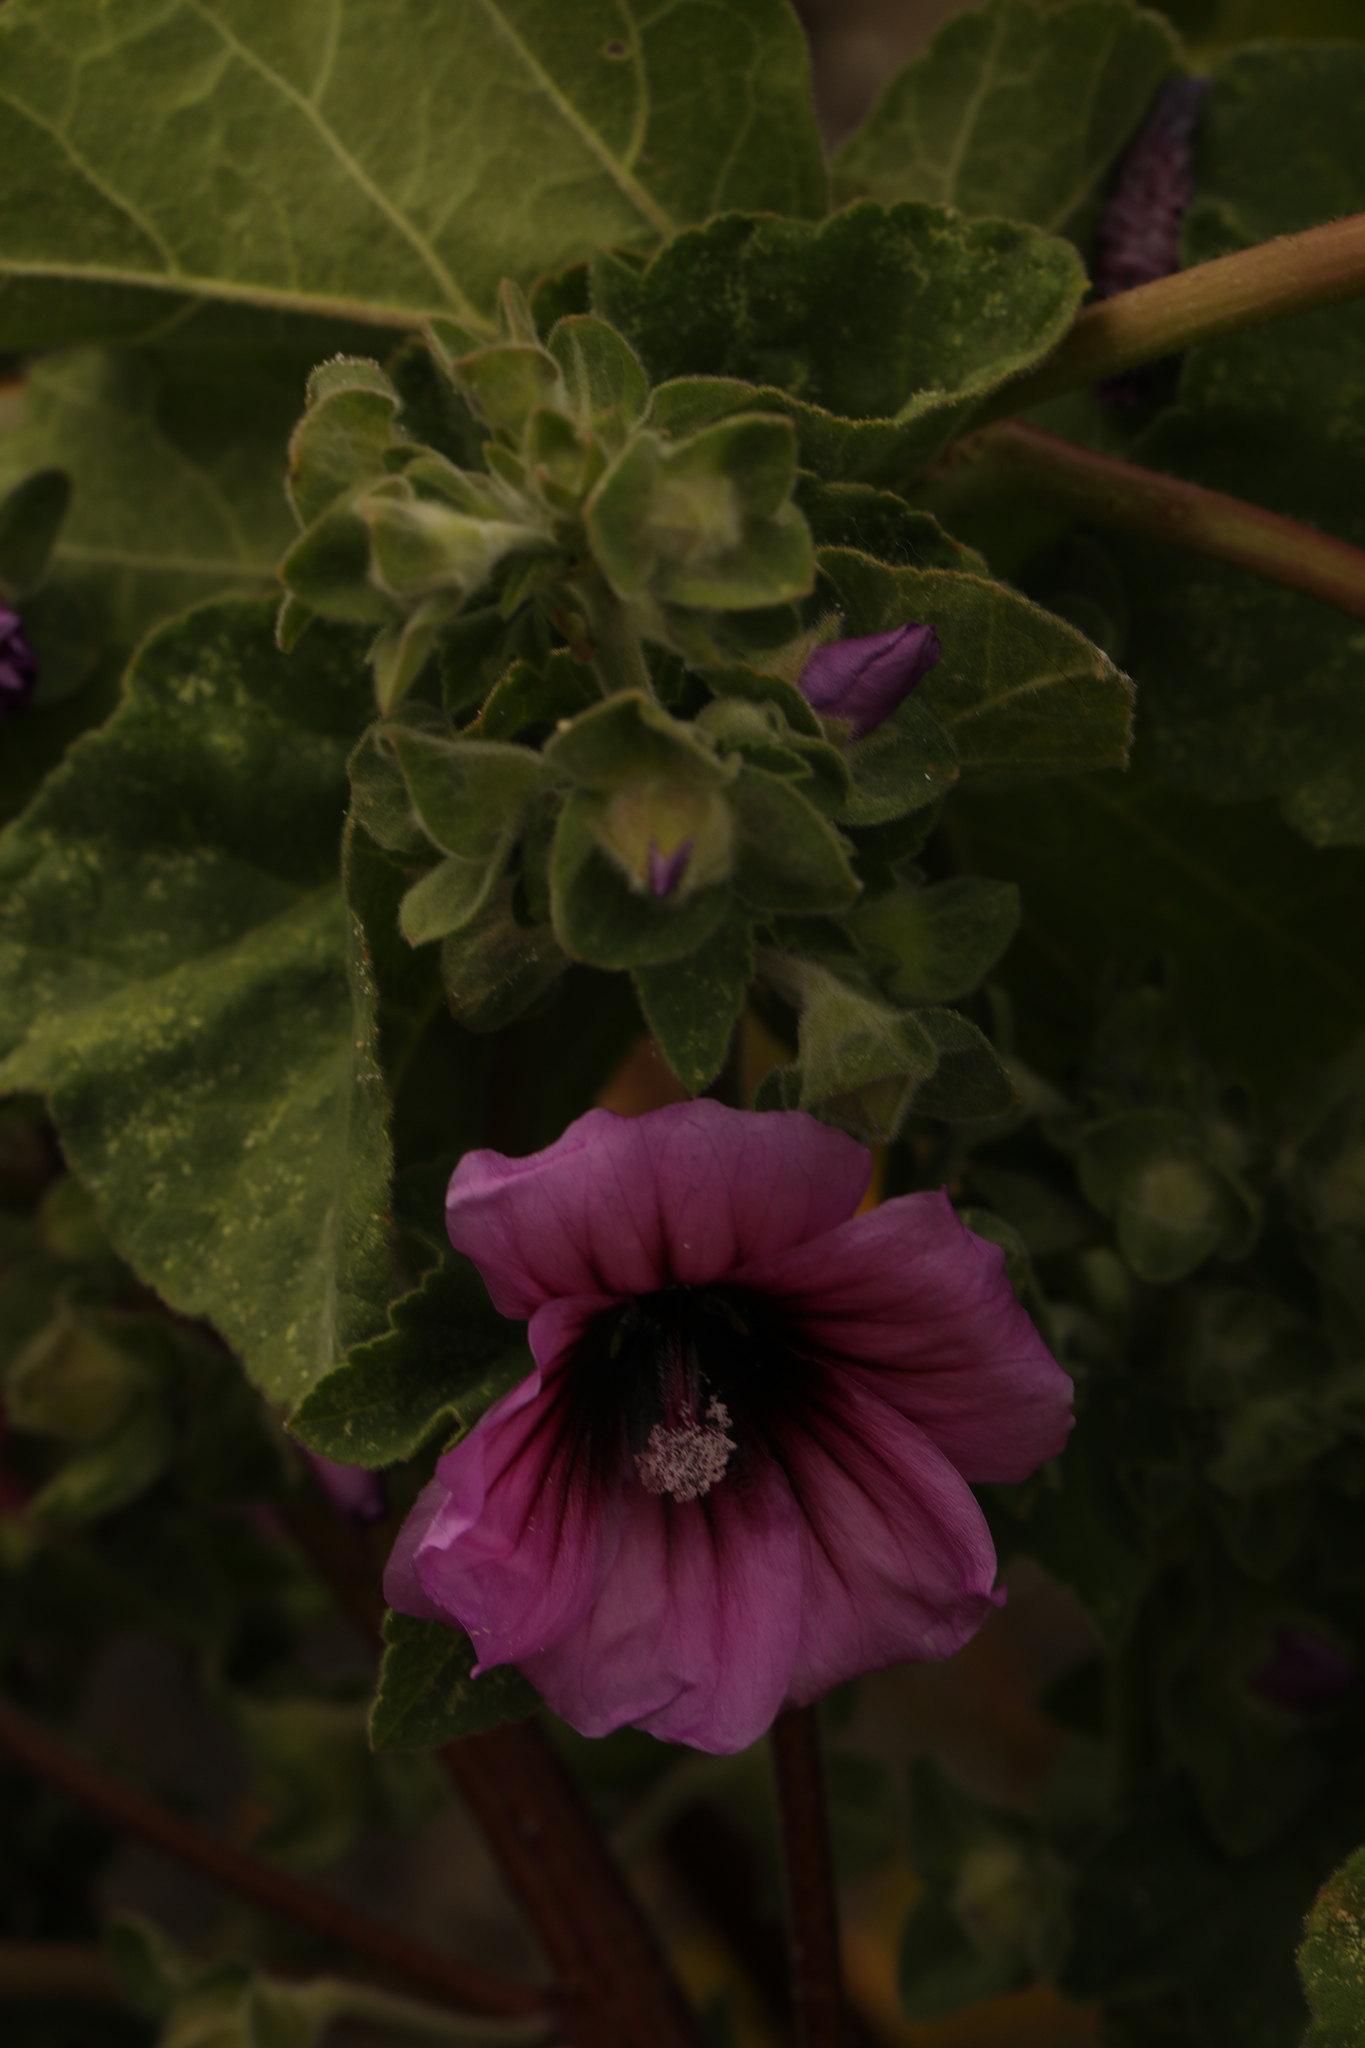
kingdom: Plantae
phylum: Tracheophyta
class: Magnoliopsida
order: Malvales
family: Malvaceae
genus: Malva
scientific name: Malva arborea
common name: Tree mallow
